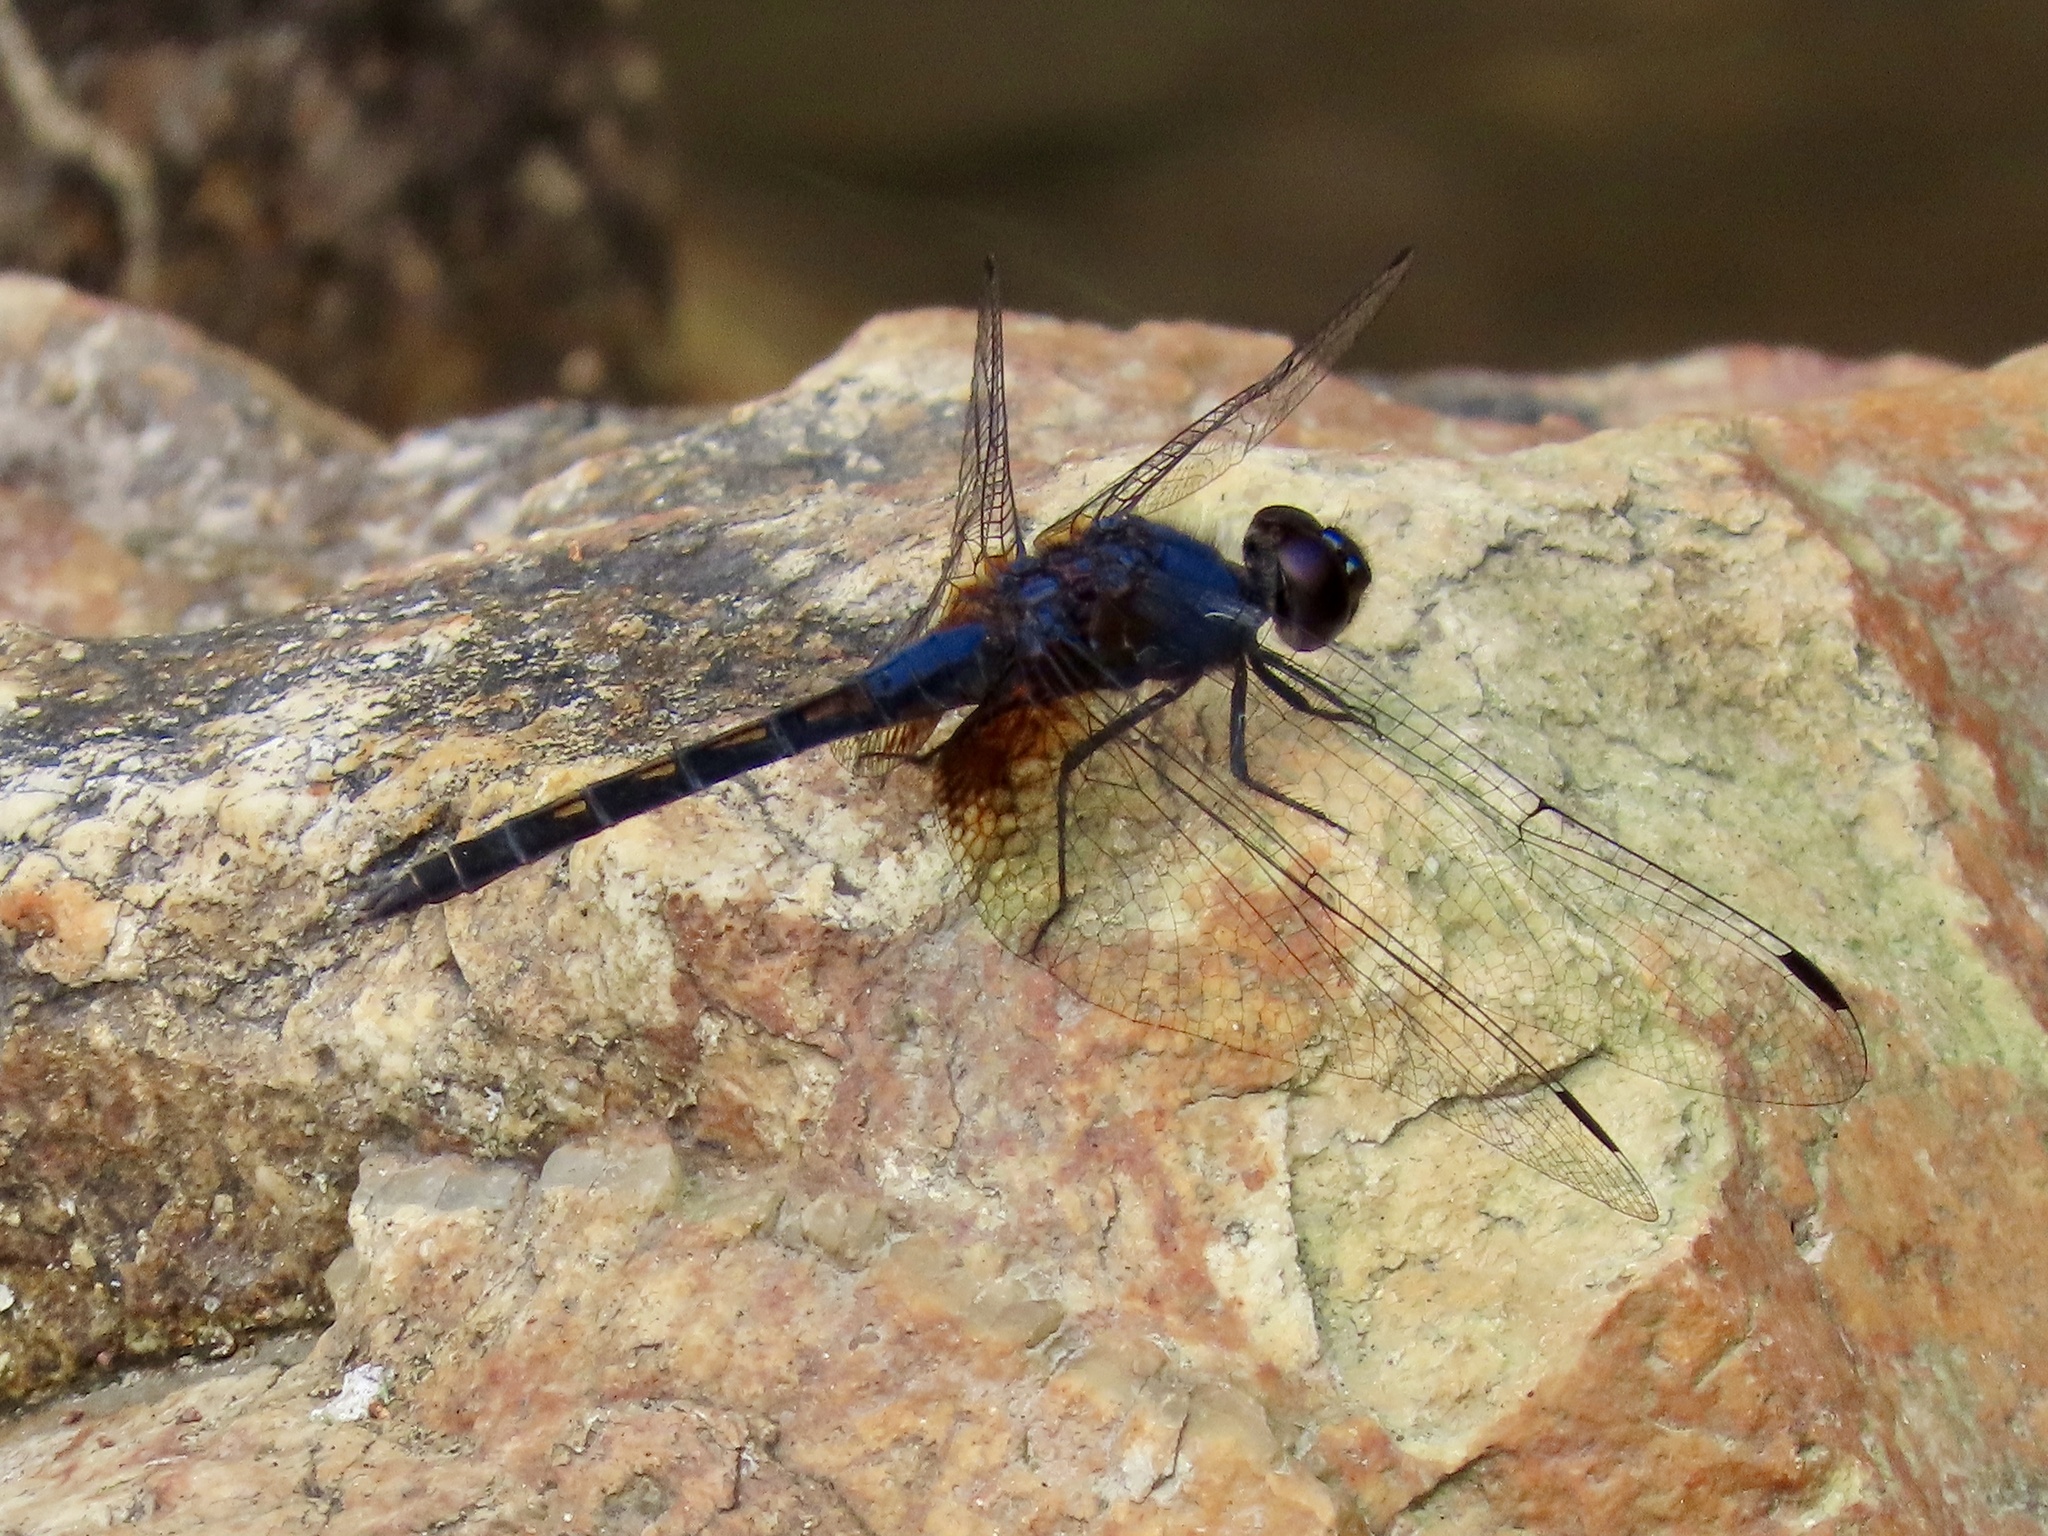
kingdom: Animalia
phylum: Arthropoda
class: Insecta
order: Odonata
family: Libellulidae
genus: Trithemis
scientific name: Trithemis festiva
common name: Indigo dropwing
